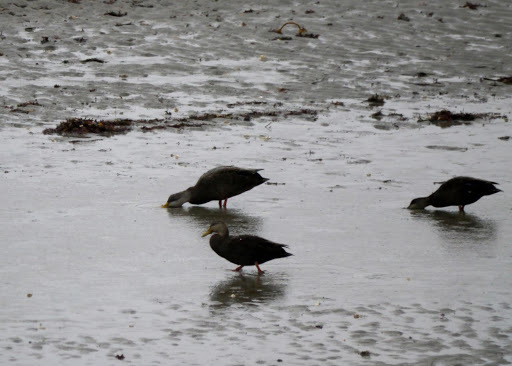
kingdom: Animalia
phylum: Chordata
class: Aves
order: Anseriformes
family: Anatidae
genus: Anas
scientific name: Anas rubripes
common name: American black duck
